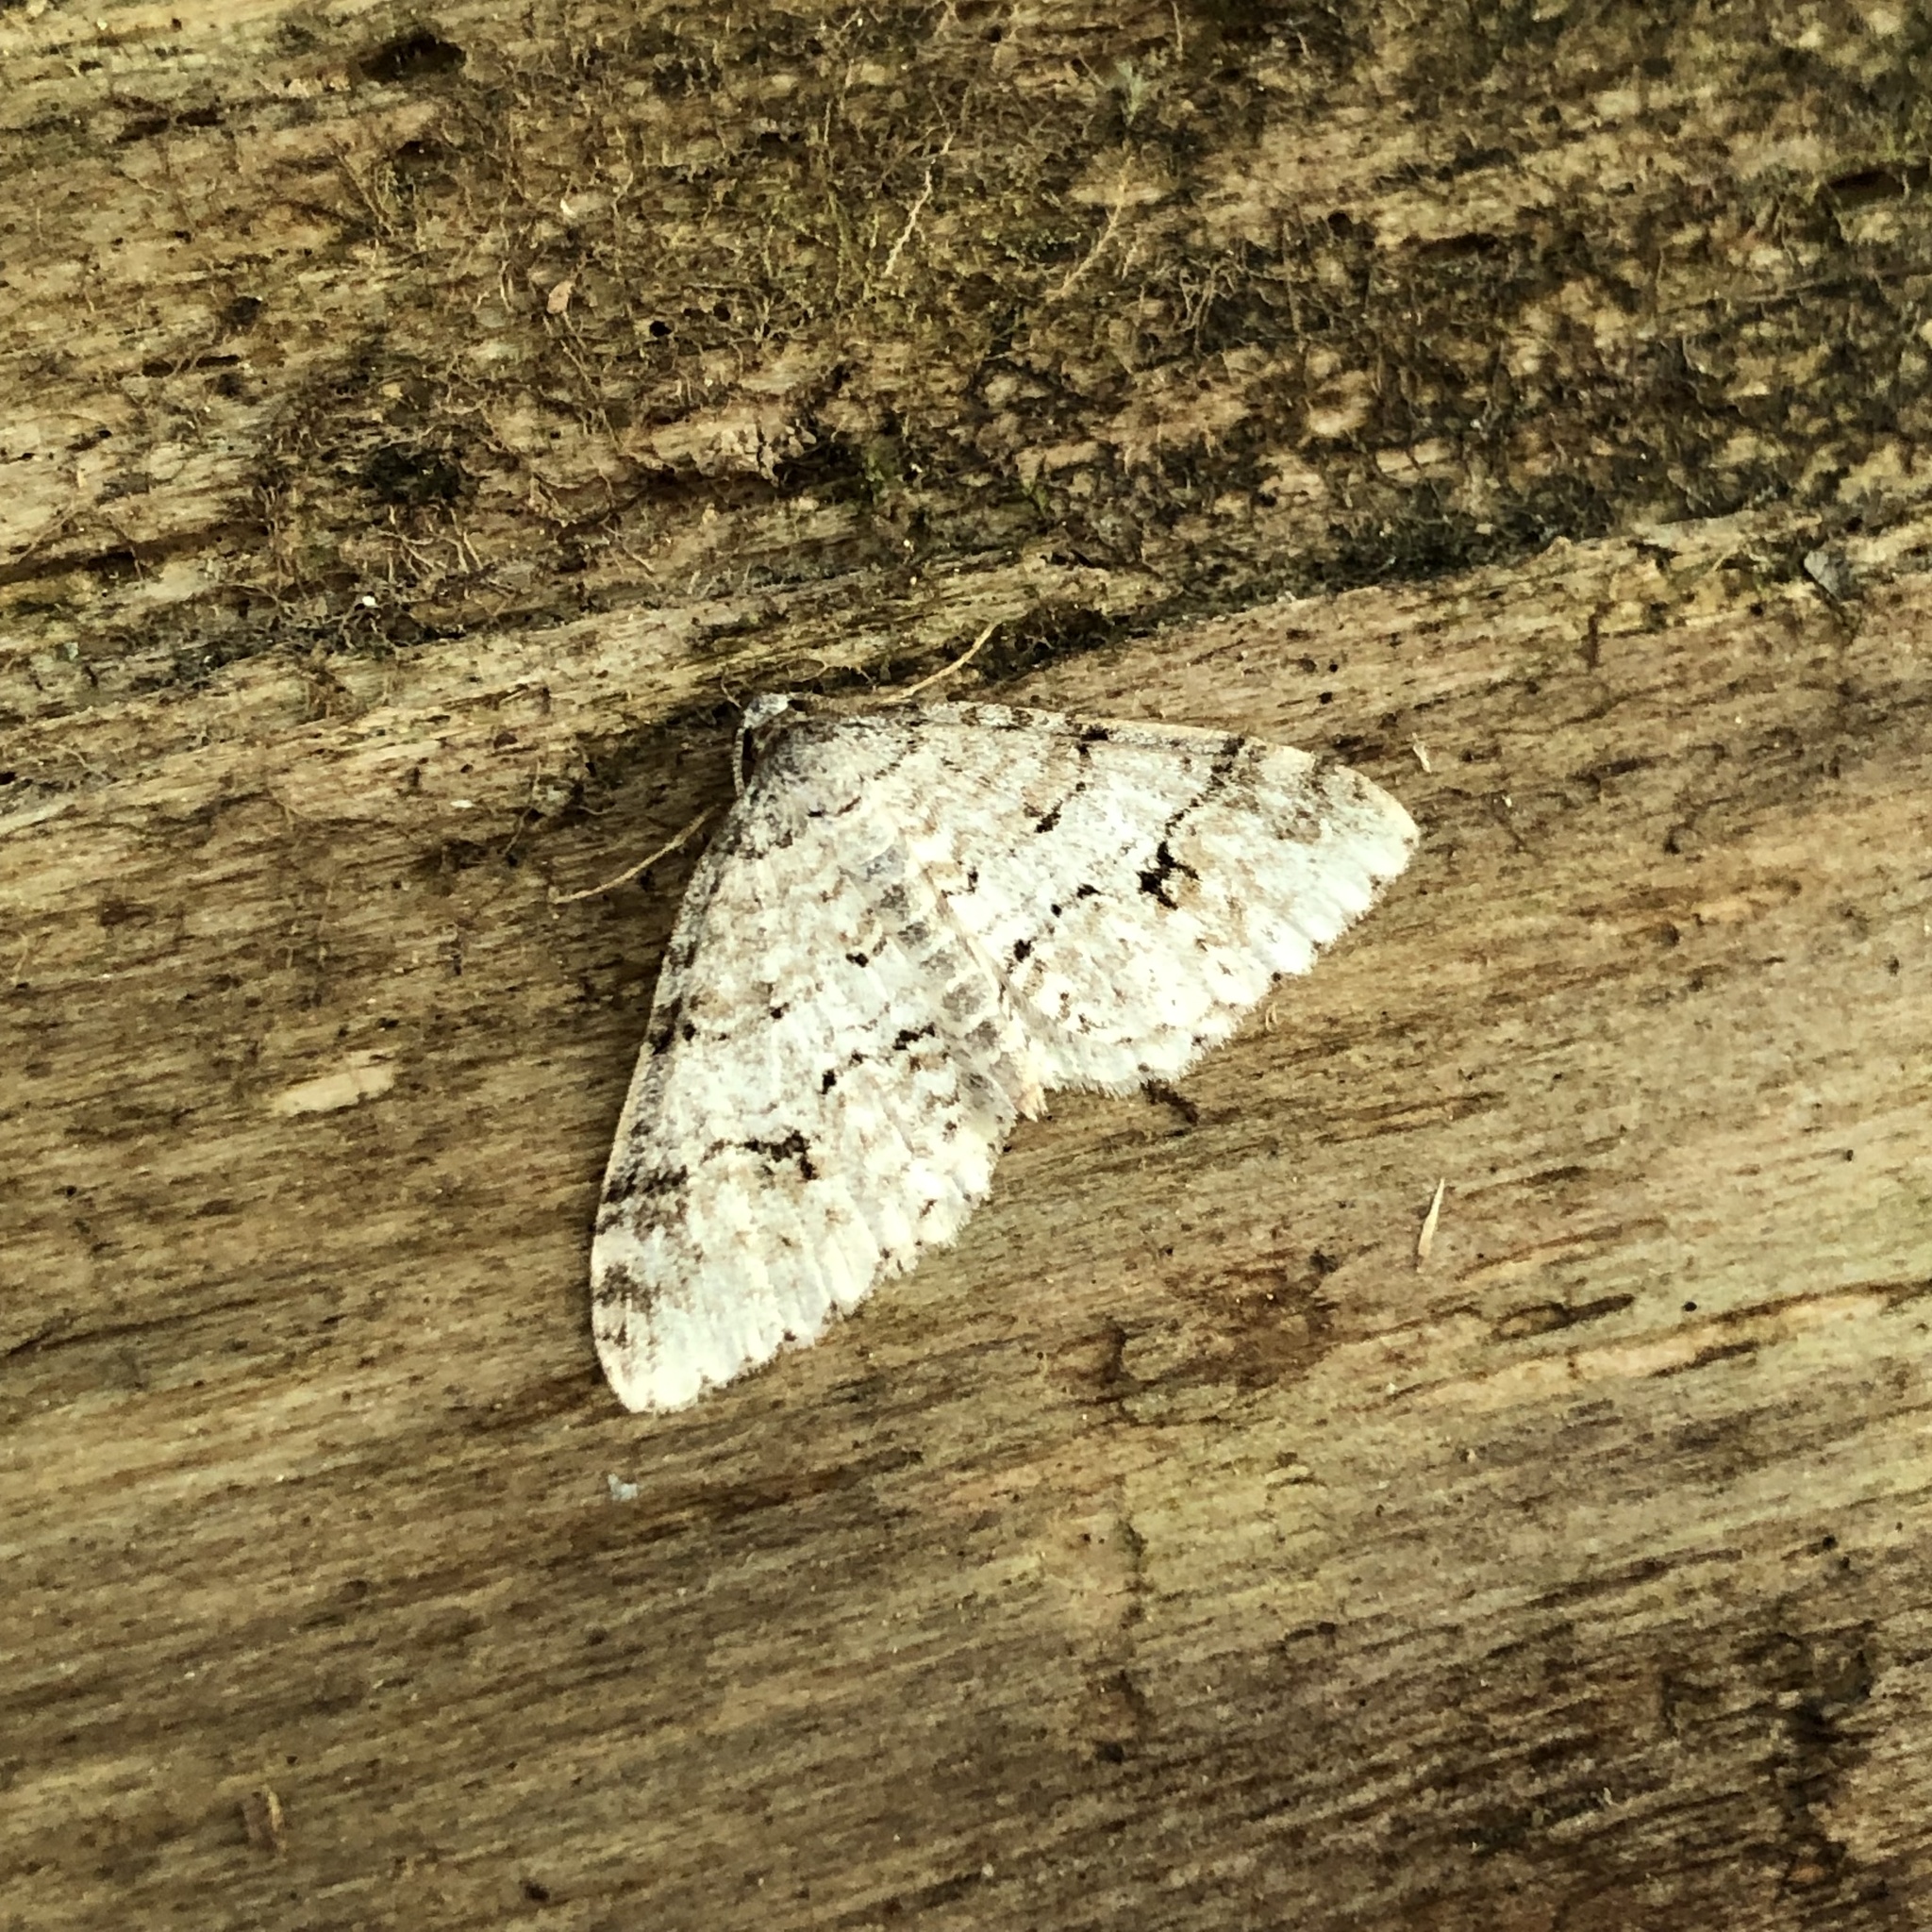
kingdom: Animalia
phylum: Arthropoda
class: Insecta
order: Lepidoptera
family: Geometridae
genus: Venusia
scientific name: Venusia cambrica
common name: Welsh wave
